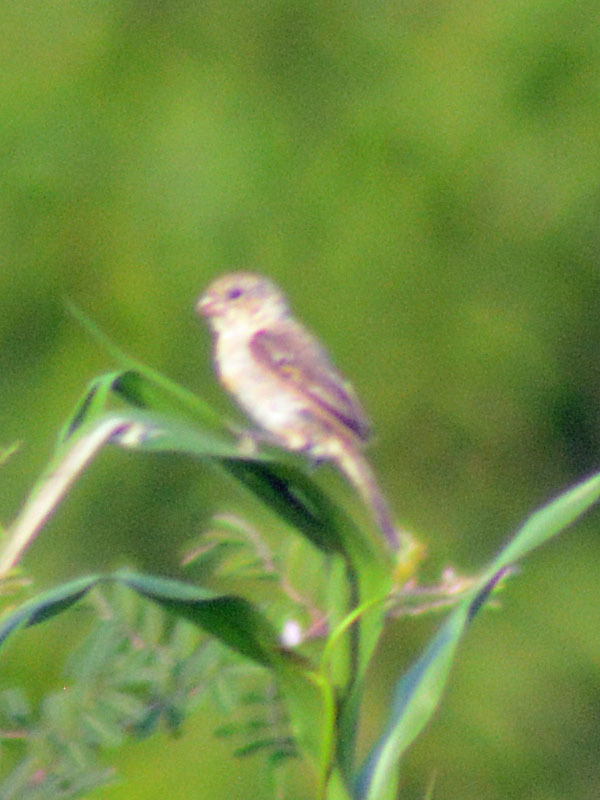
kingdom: Animalia
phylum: Chordata
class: Aves
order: Passeriformes
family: Thraupidae
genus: Sporophila
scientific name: Sporophila morelleti
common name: Morelet's seedeater
